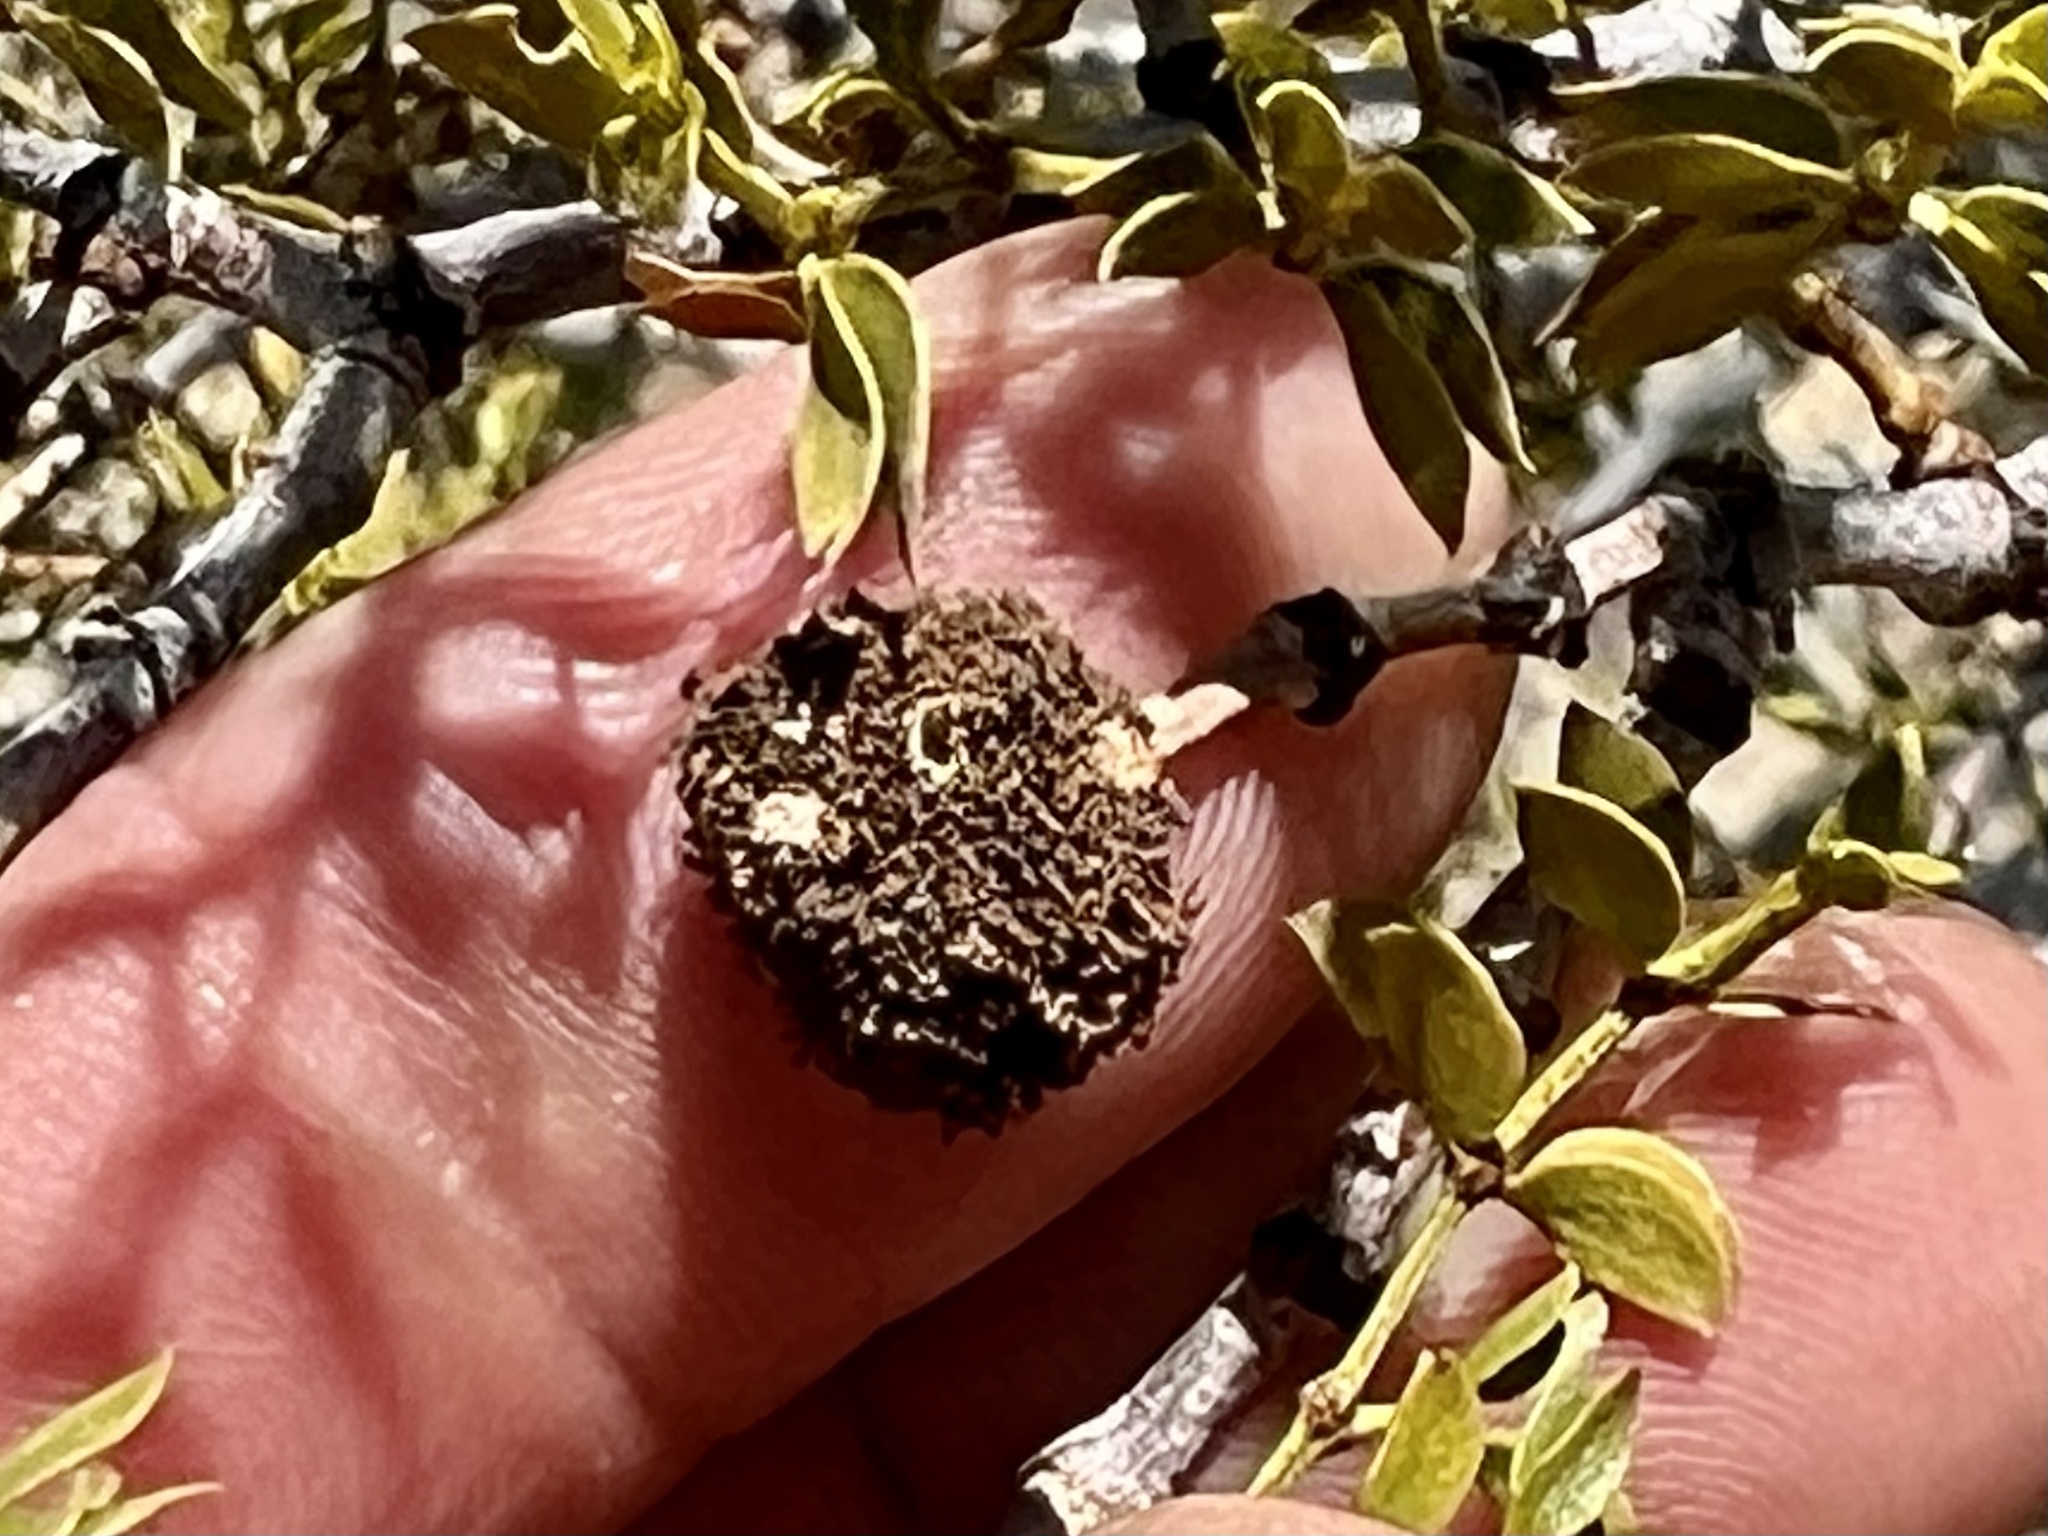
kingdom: Animalia
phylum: Arthropoda
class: Insecta
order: Diptera
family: Cecidomyiidae
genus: Asphondylia
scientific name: Asphondylia auripila
